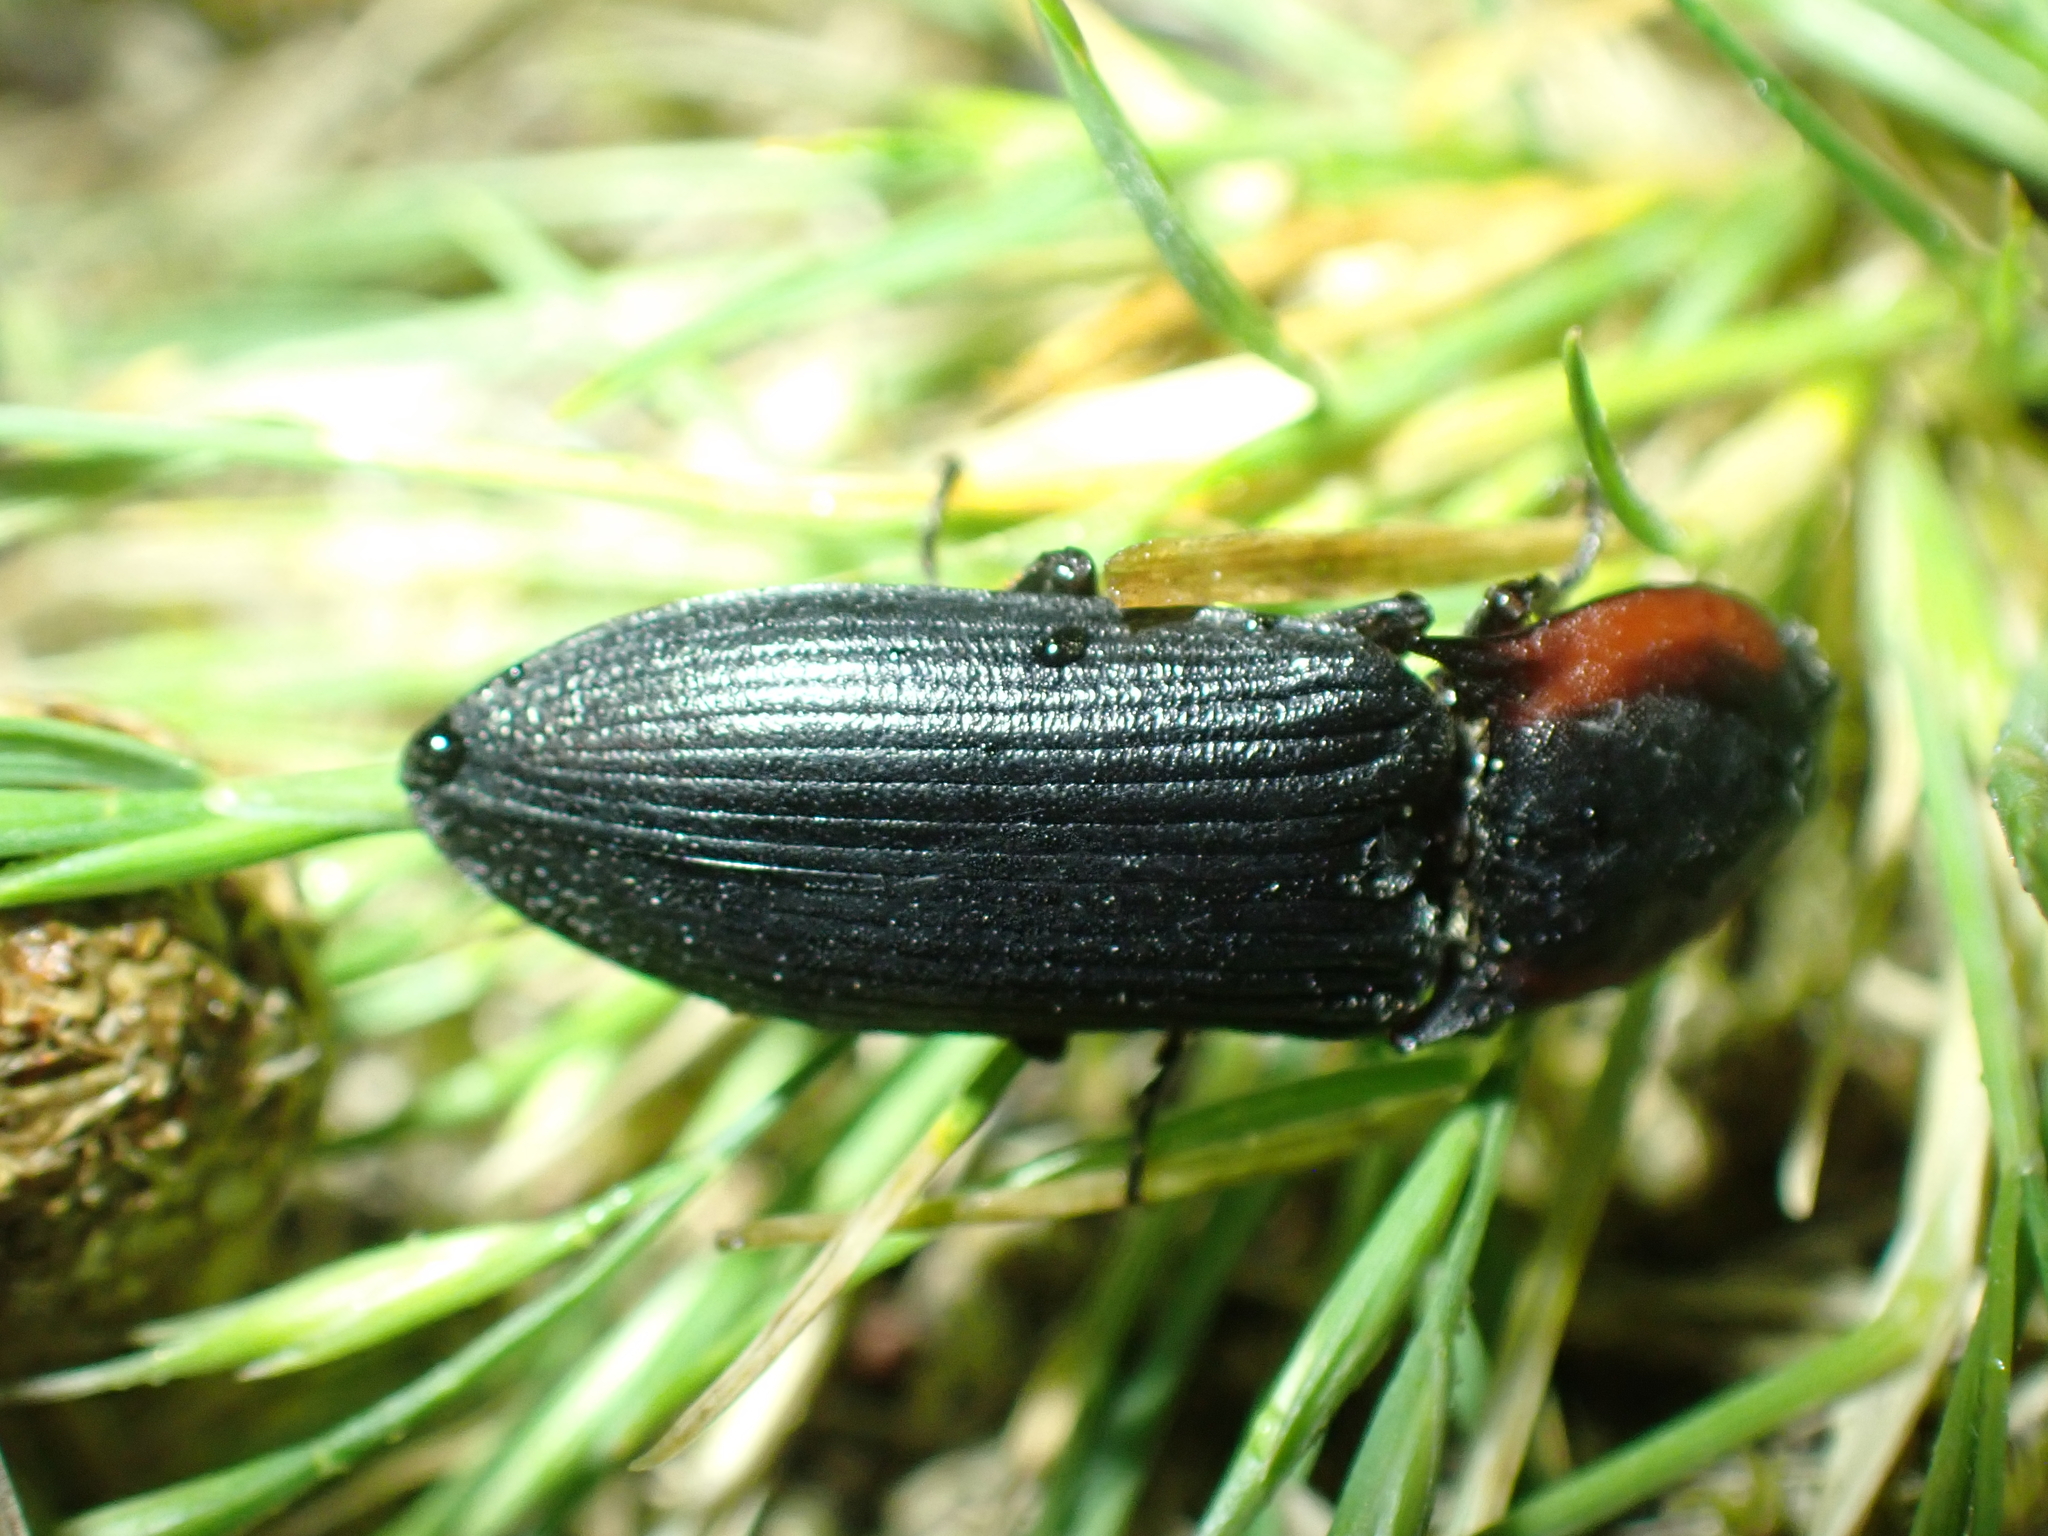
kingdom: Animalia
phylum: Arthropoda
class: Insecta
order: Coleoptera
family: Elateridae
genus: Selatosomus
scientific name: Selatosomus lateralis
